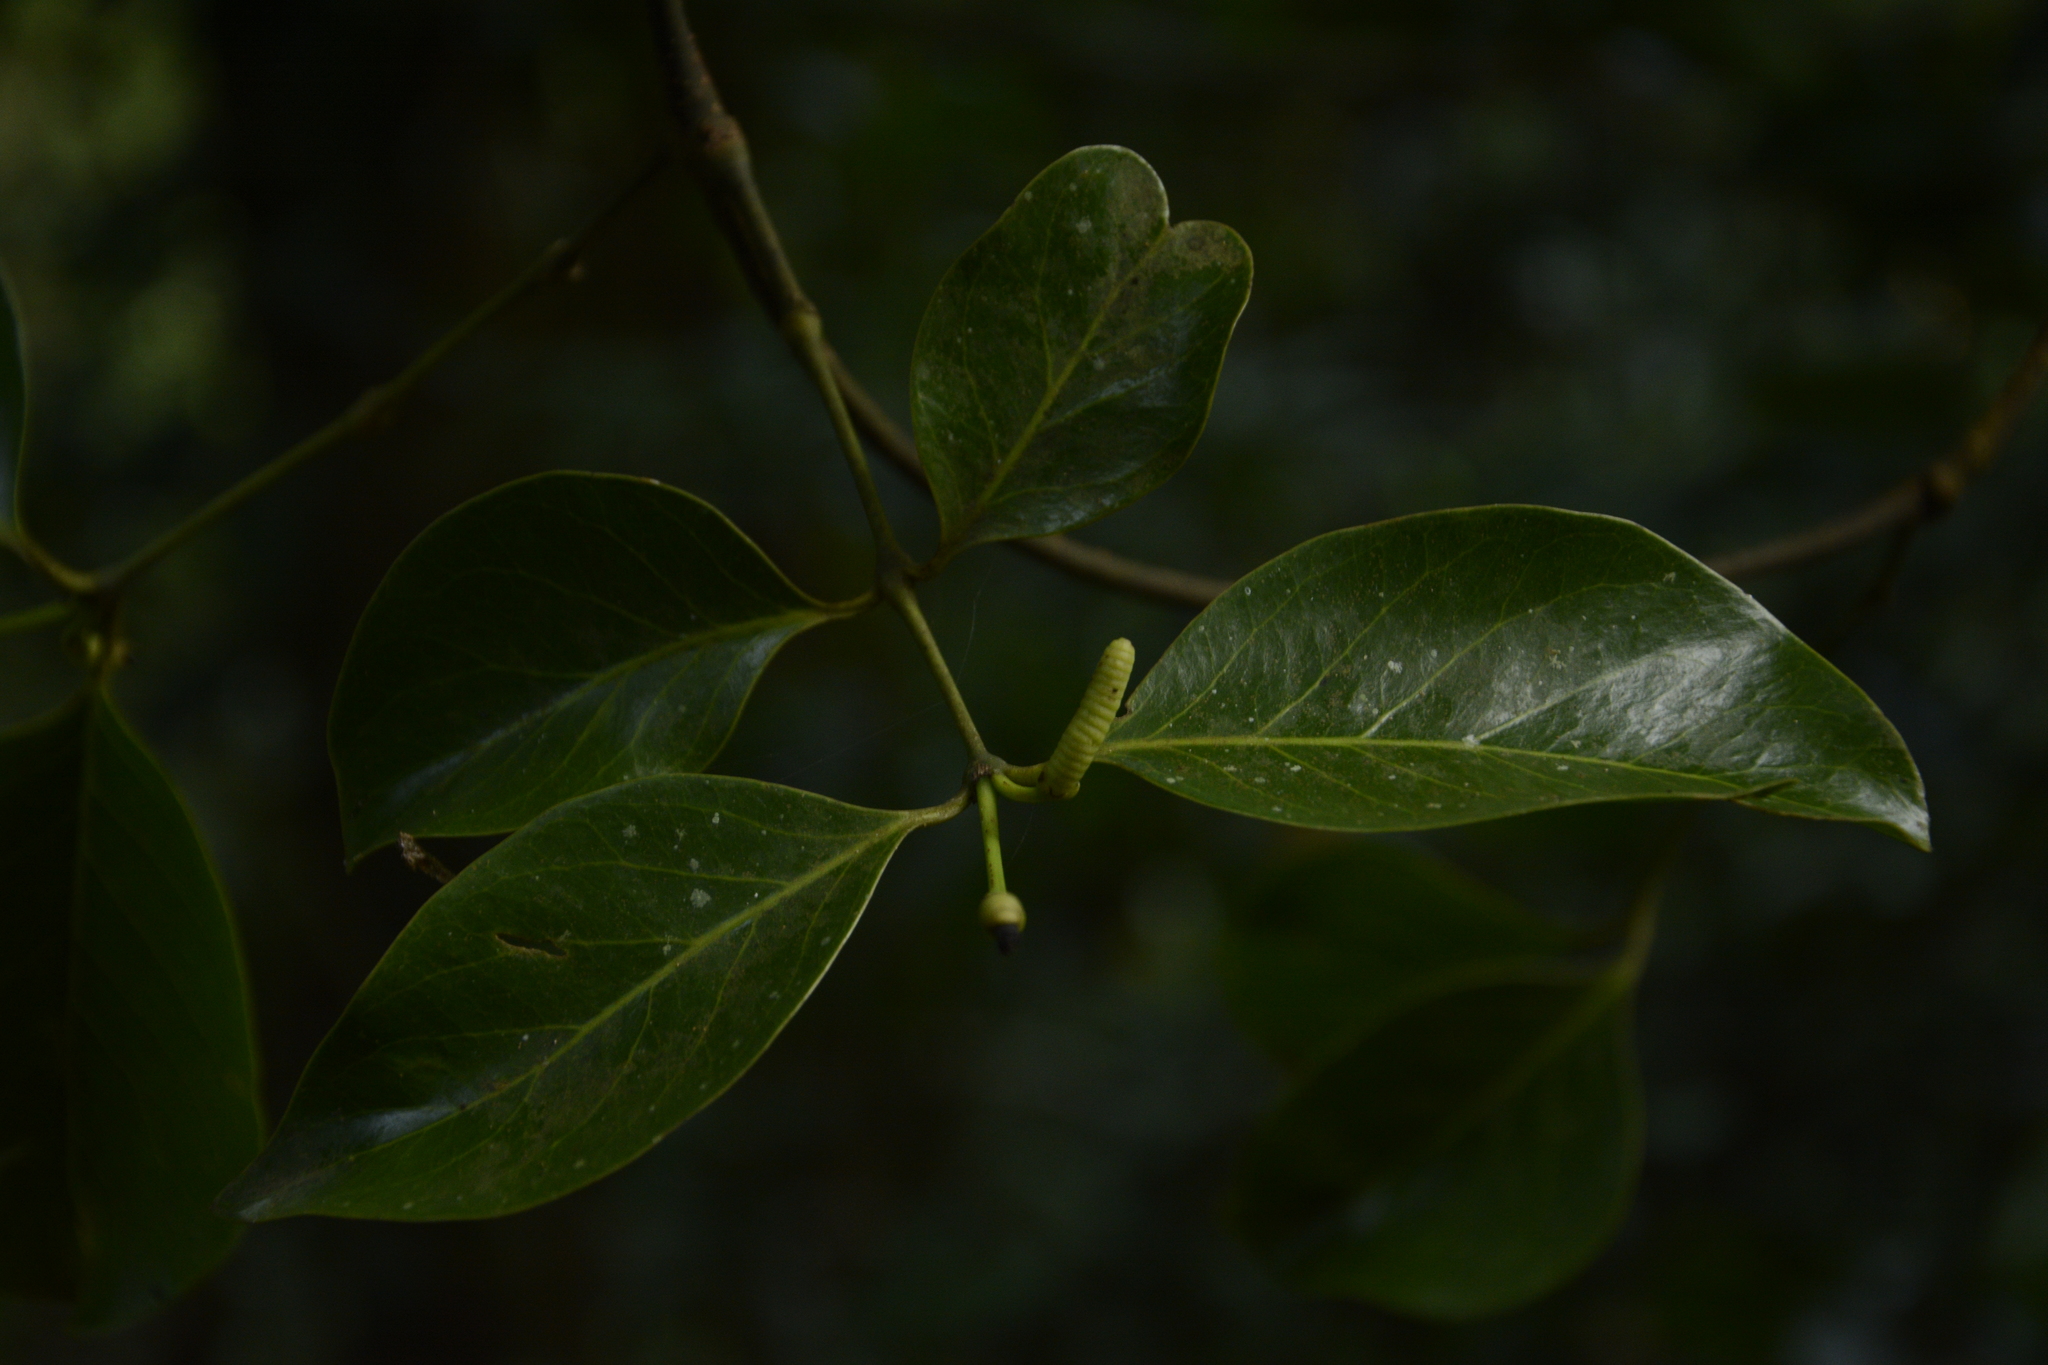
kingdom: Plantae
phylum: Tracheophyta
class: Gnetopsida
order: Gnetales
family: Gnetaceae
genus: Gnetum
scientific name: Gnetum edule
